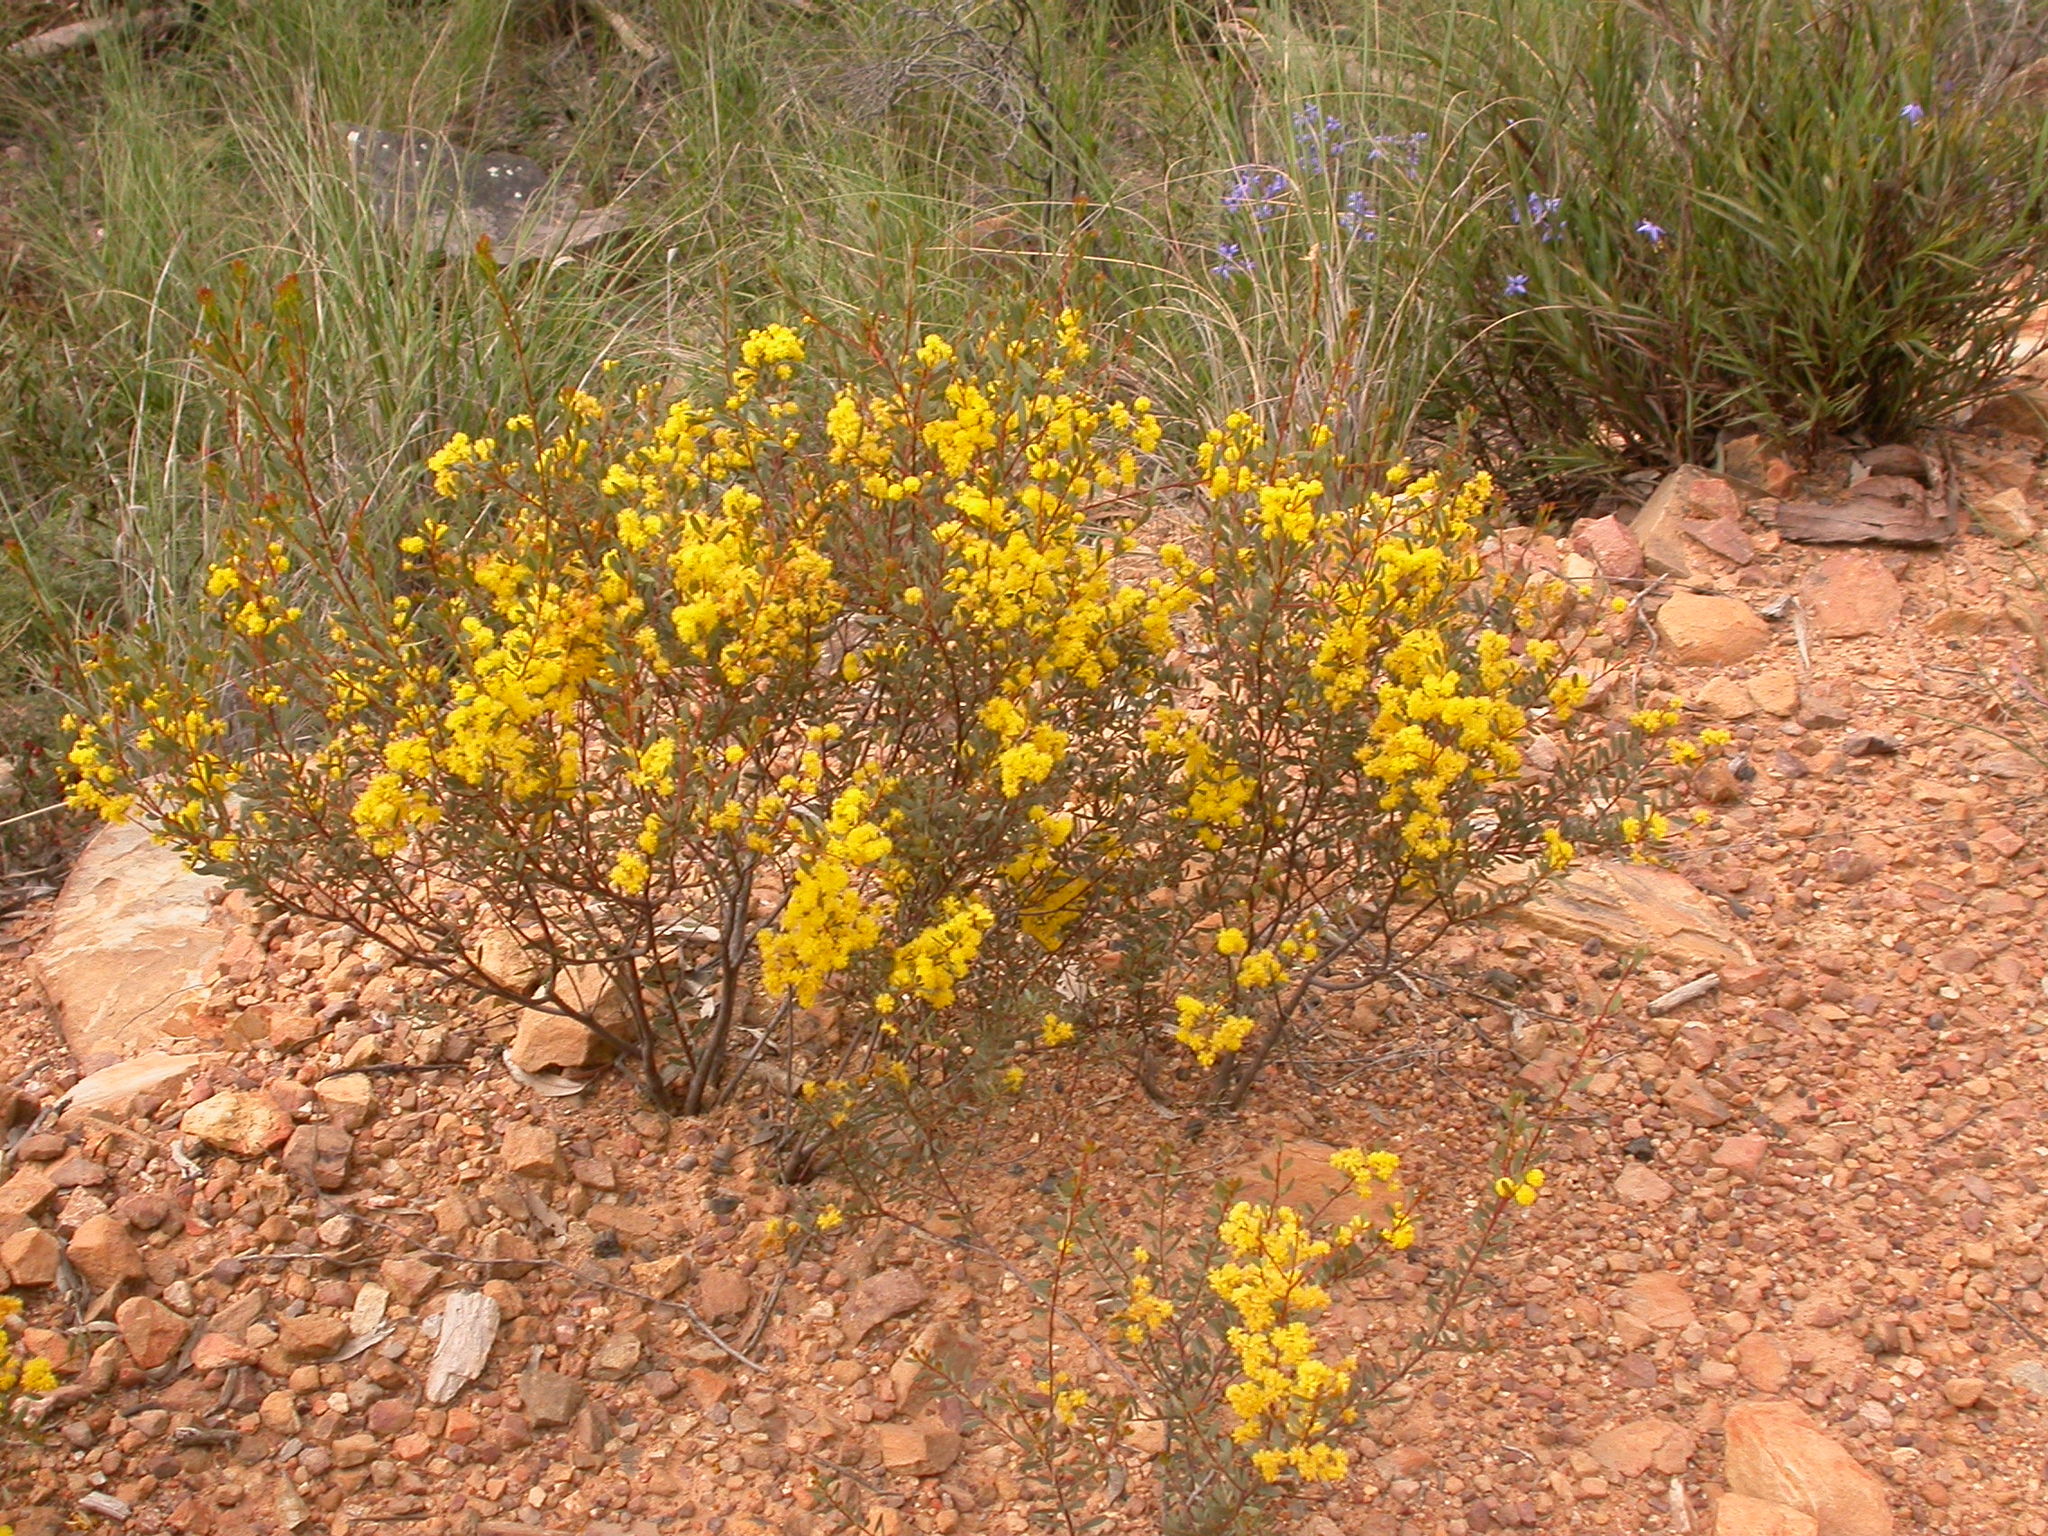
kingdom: Plantae
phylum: Tracheophyta
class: Magnoliopsida
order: Fabales
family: Fabaceae
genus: Acacia
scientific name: Acacia buxifolia
